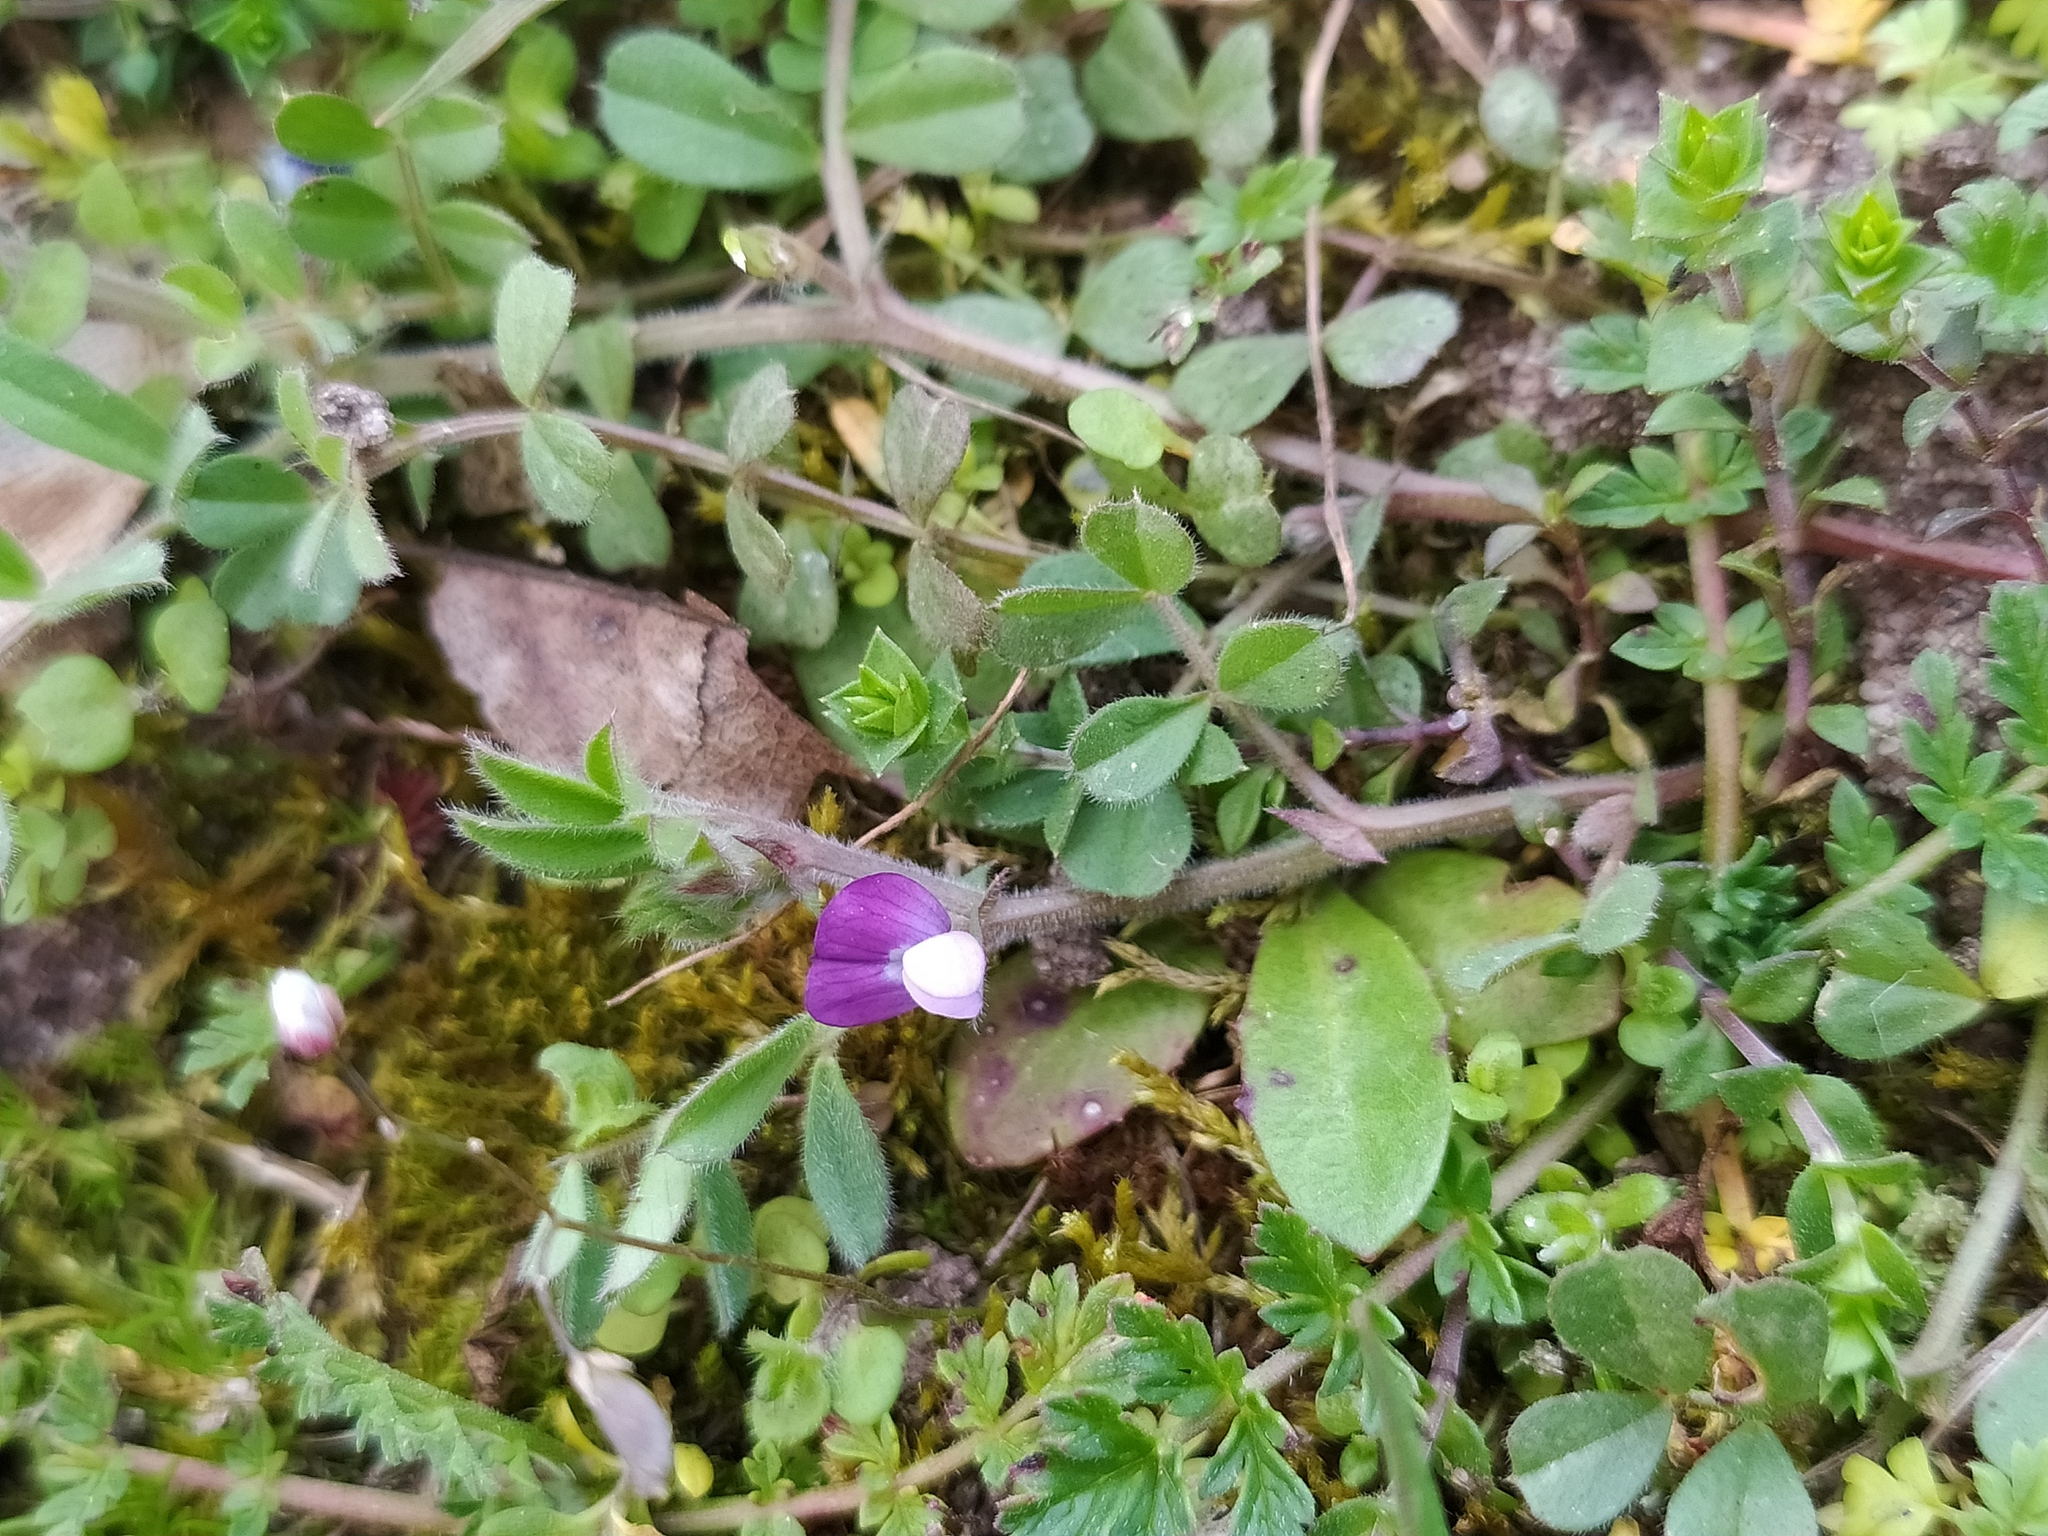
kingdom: Plantae
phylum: Tracheophyta
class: Magnoliopsida
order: Fabales
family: Fabaceae
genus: Vicia
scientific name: Vicia lathyroides
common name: Spring vetch
